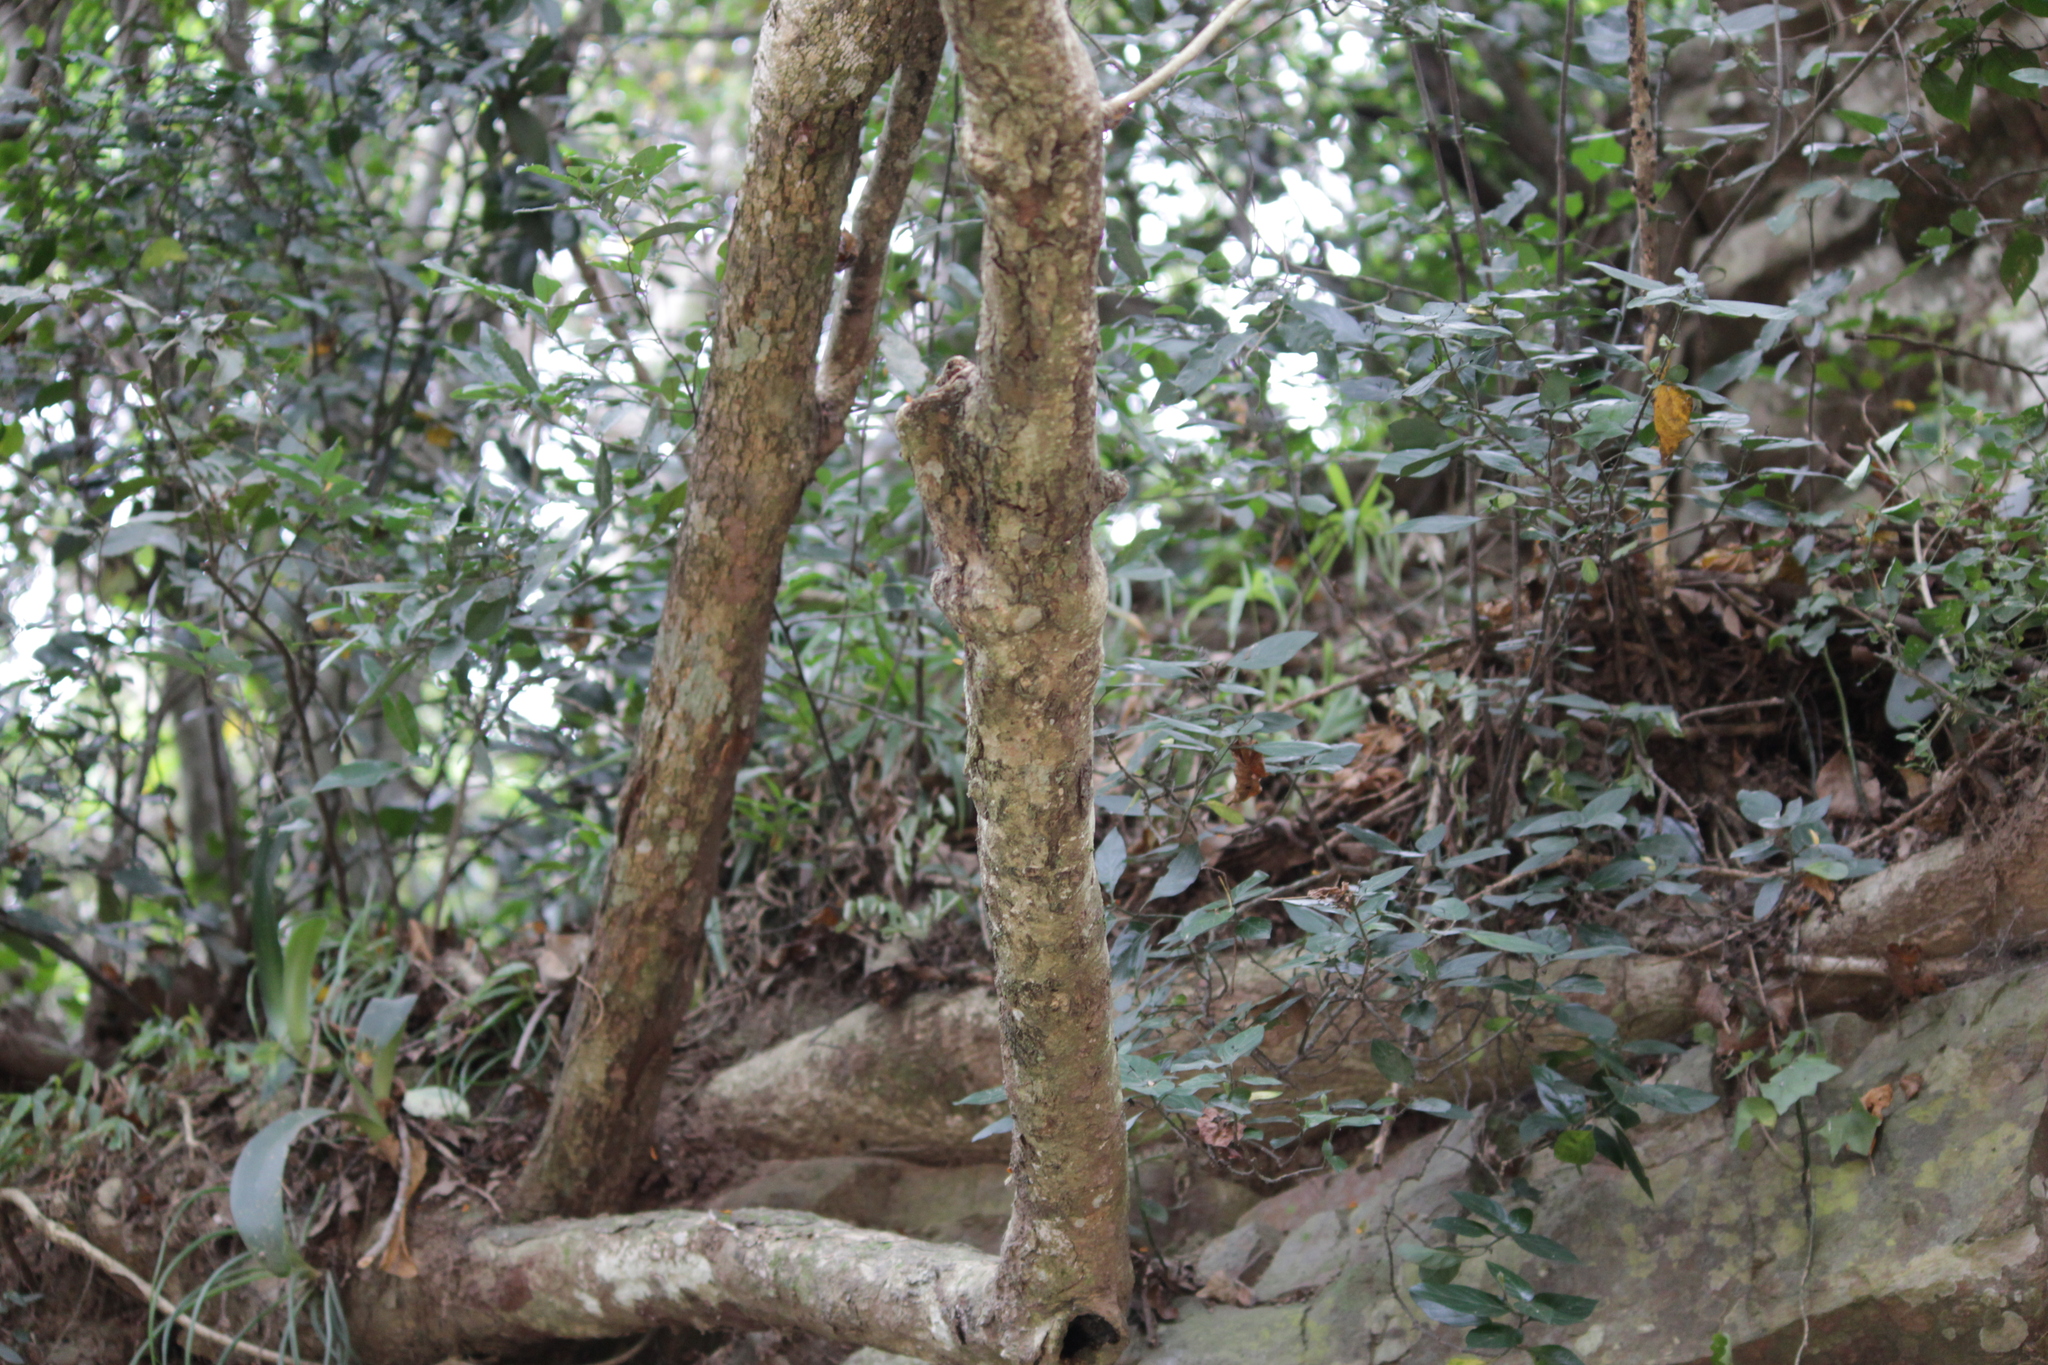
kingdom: Plantae
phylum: Tracheophyta
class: Magnoliopsida
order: Sapindales
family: Sapindaceae
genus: Allophylus
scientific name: Allophylus africanus
